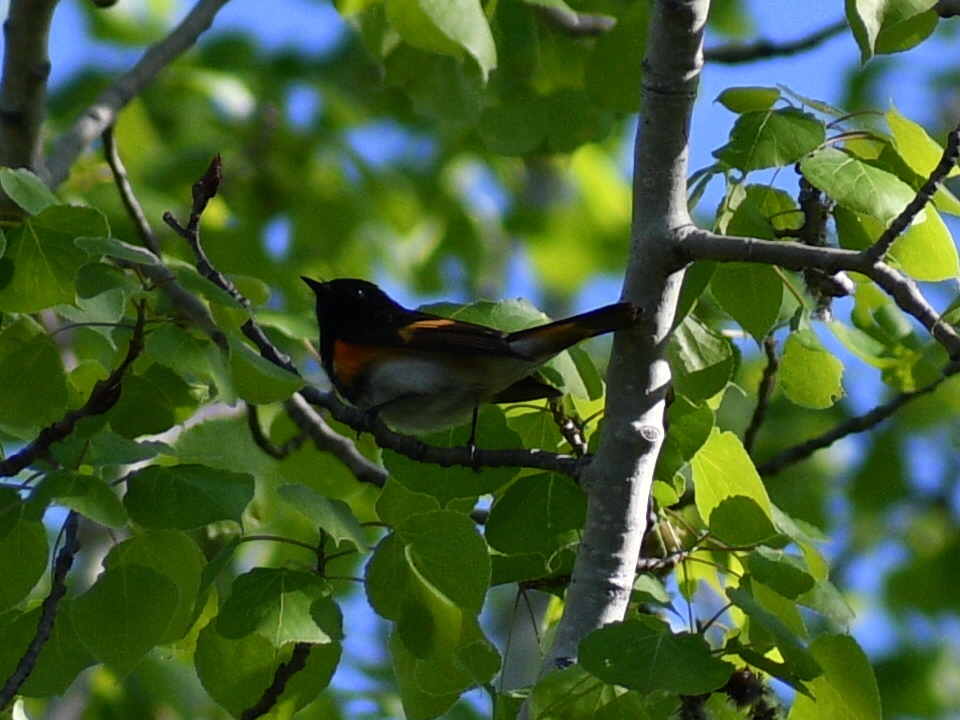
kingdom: Animalia
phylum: Chordata
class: Aves
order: Passeriformes
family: Parulidae
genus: Setophaga
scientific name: Setophaga ruticilla
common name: American redstart
